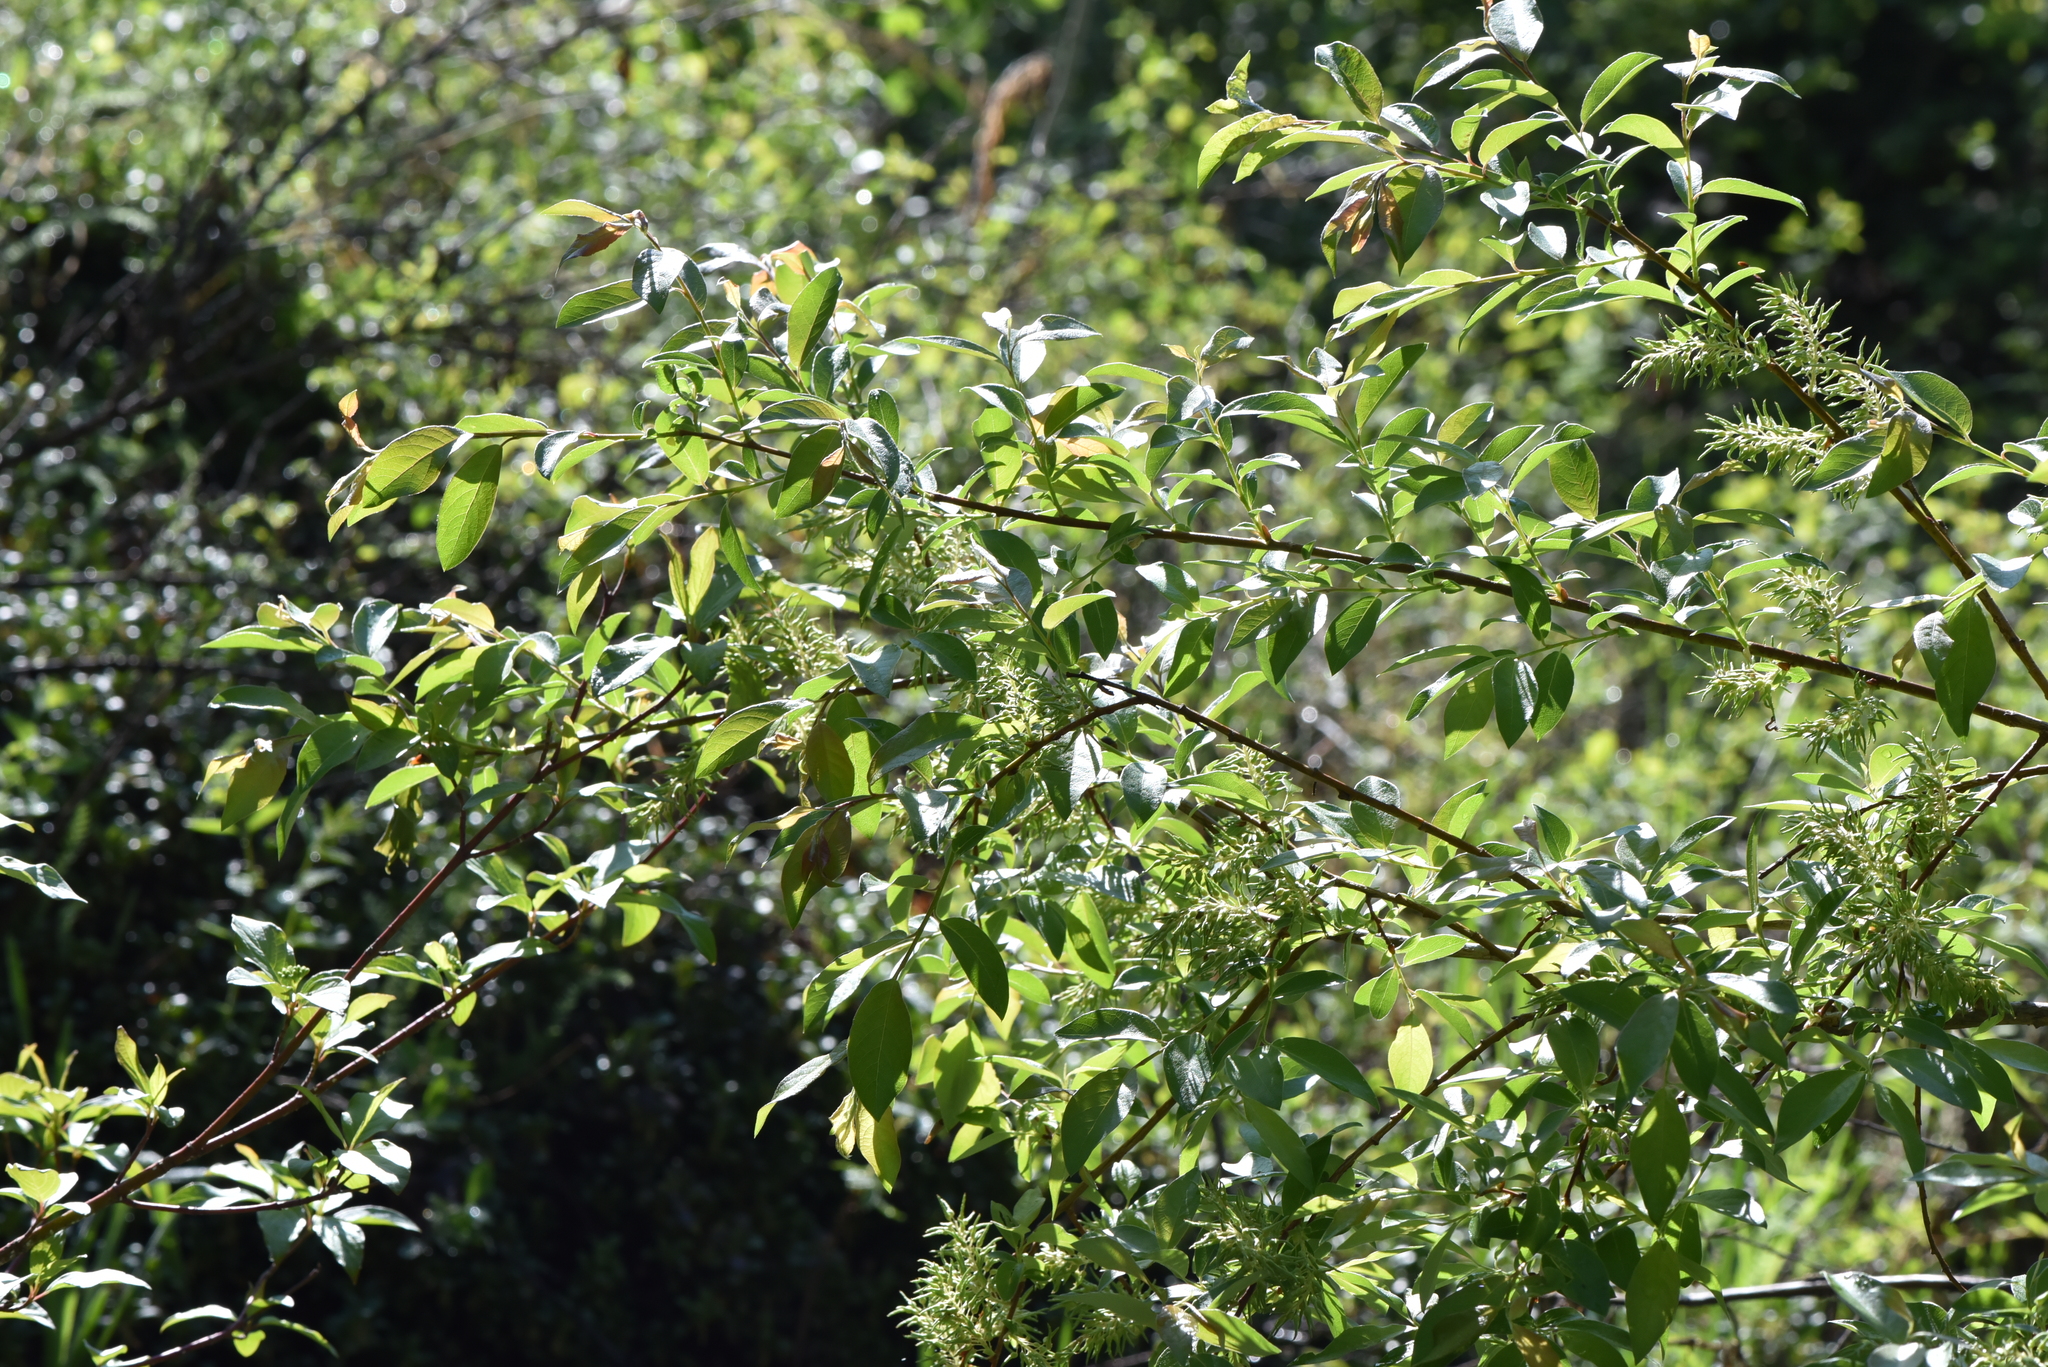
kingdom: Plantae
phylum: Tracheophyta
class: Magnoliopsida
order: Malpighiales
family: Salicaceae
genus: Salix
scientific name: Salix bebbiana
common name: Bebb's willow
